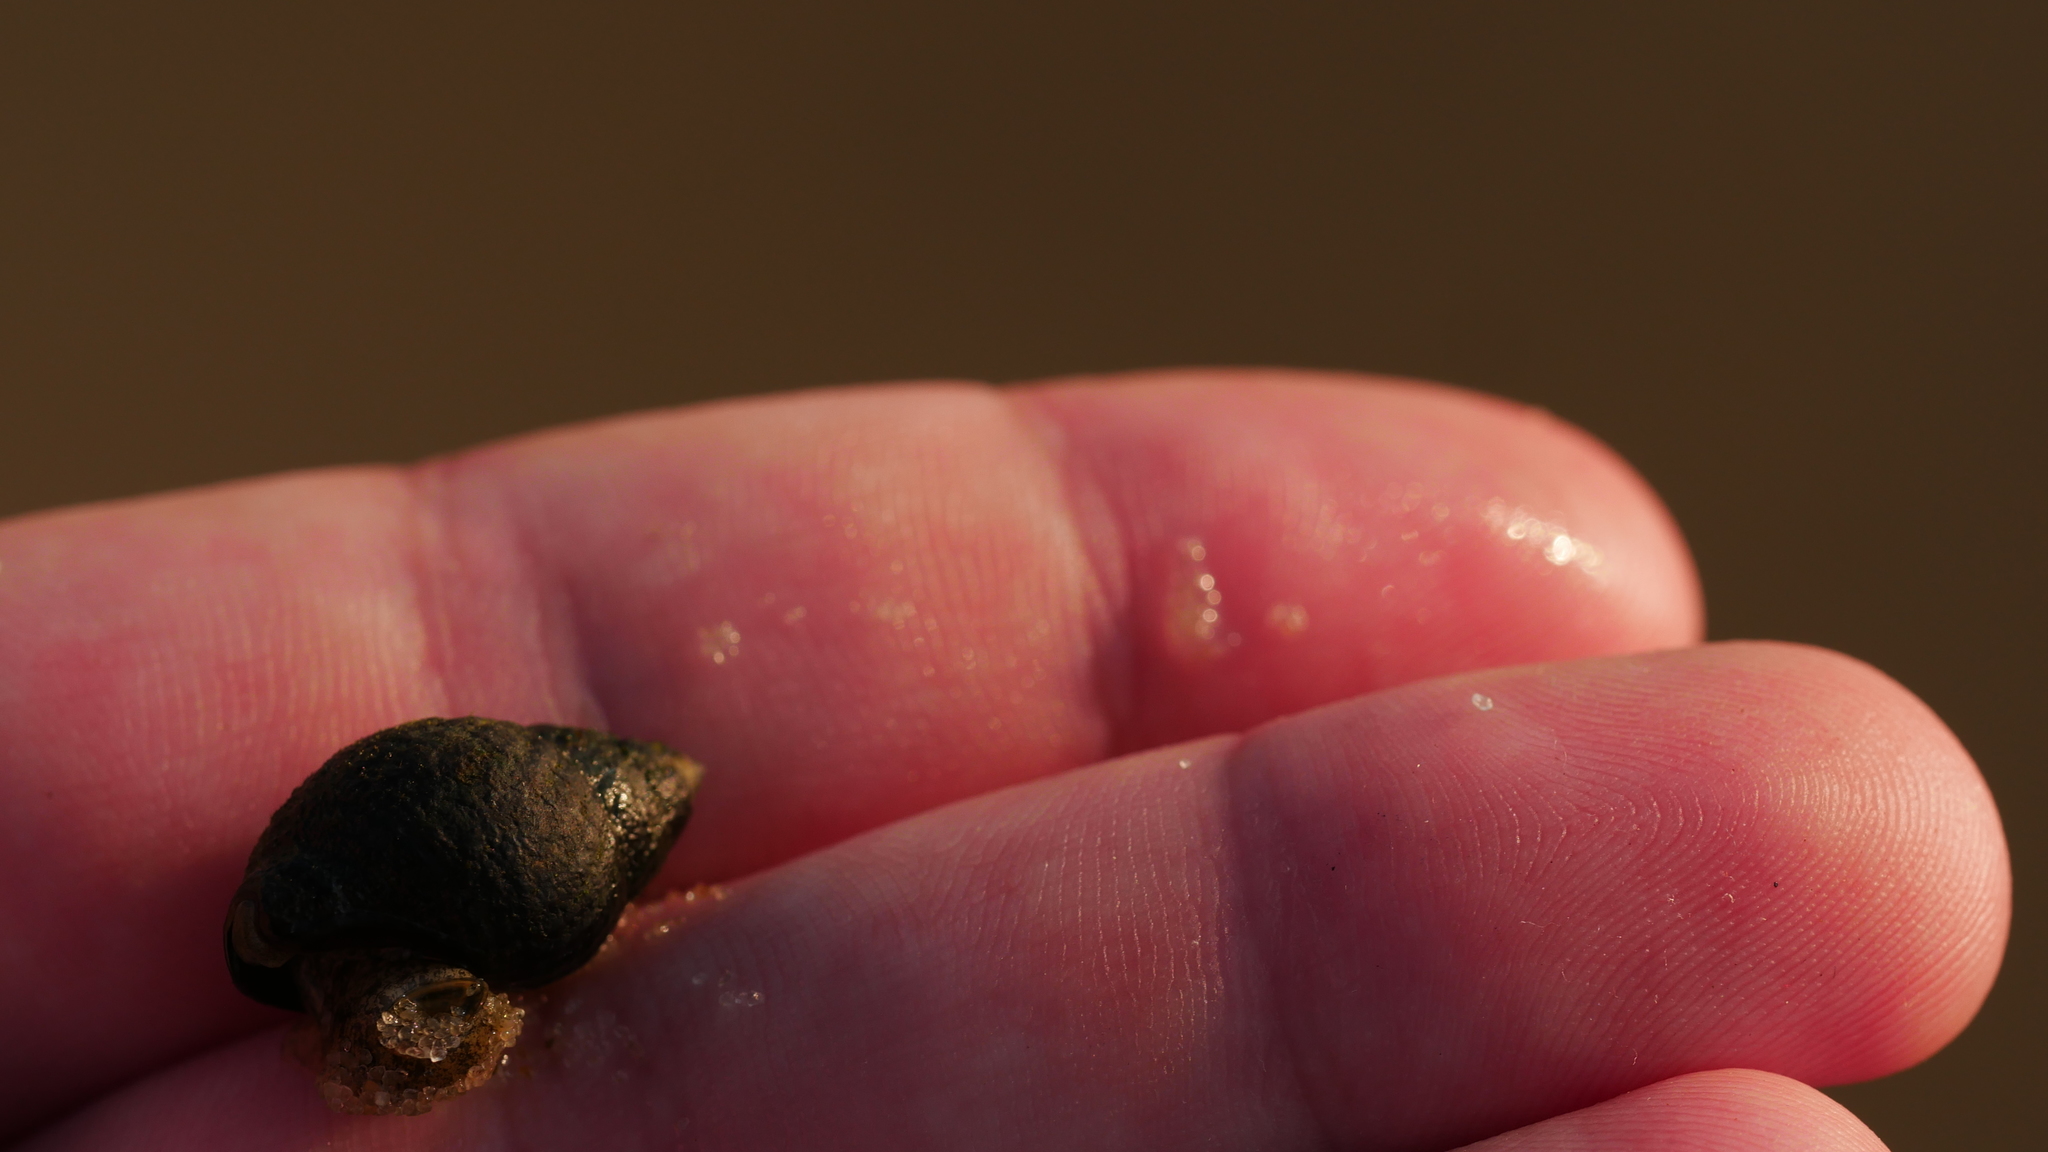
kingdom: Animalia
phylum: Mollusca
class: Gastropoda
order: Neogastropoda
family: Nassariidae
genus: Ilyanassa
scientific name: Ilyanassa obsoleta
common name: Eastern mudsnail
